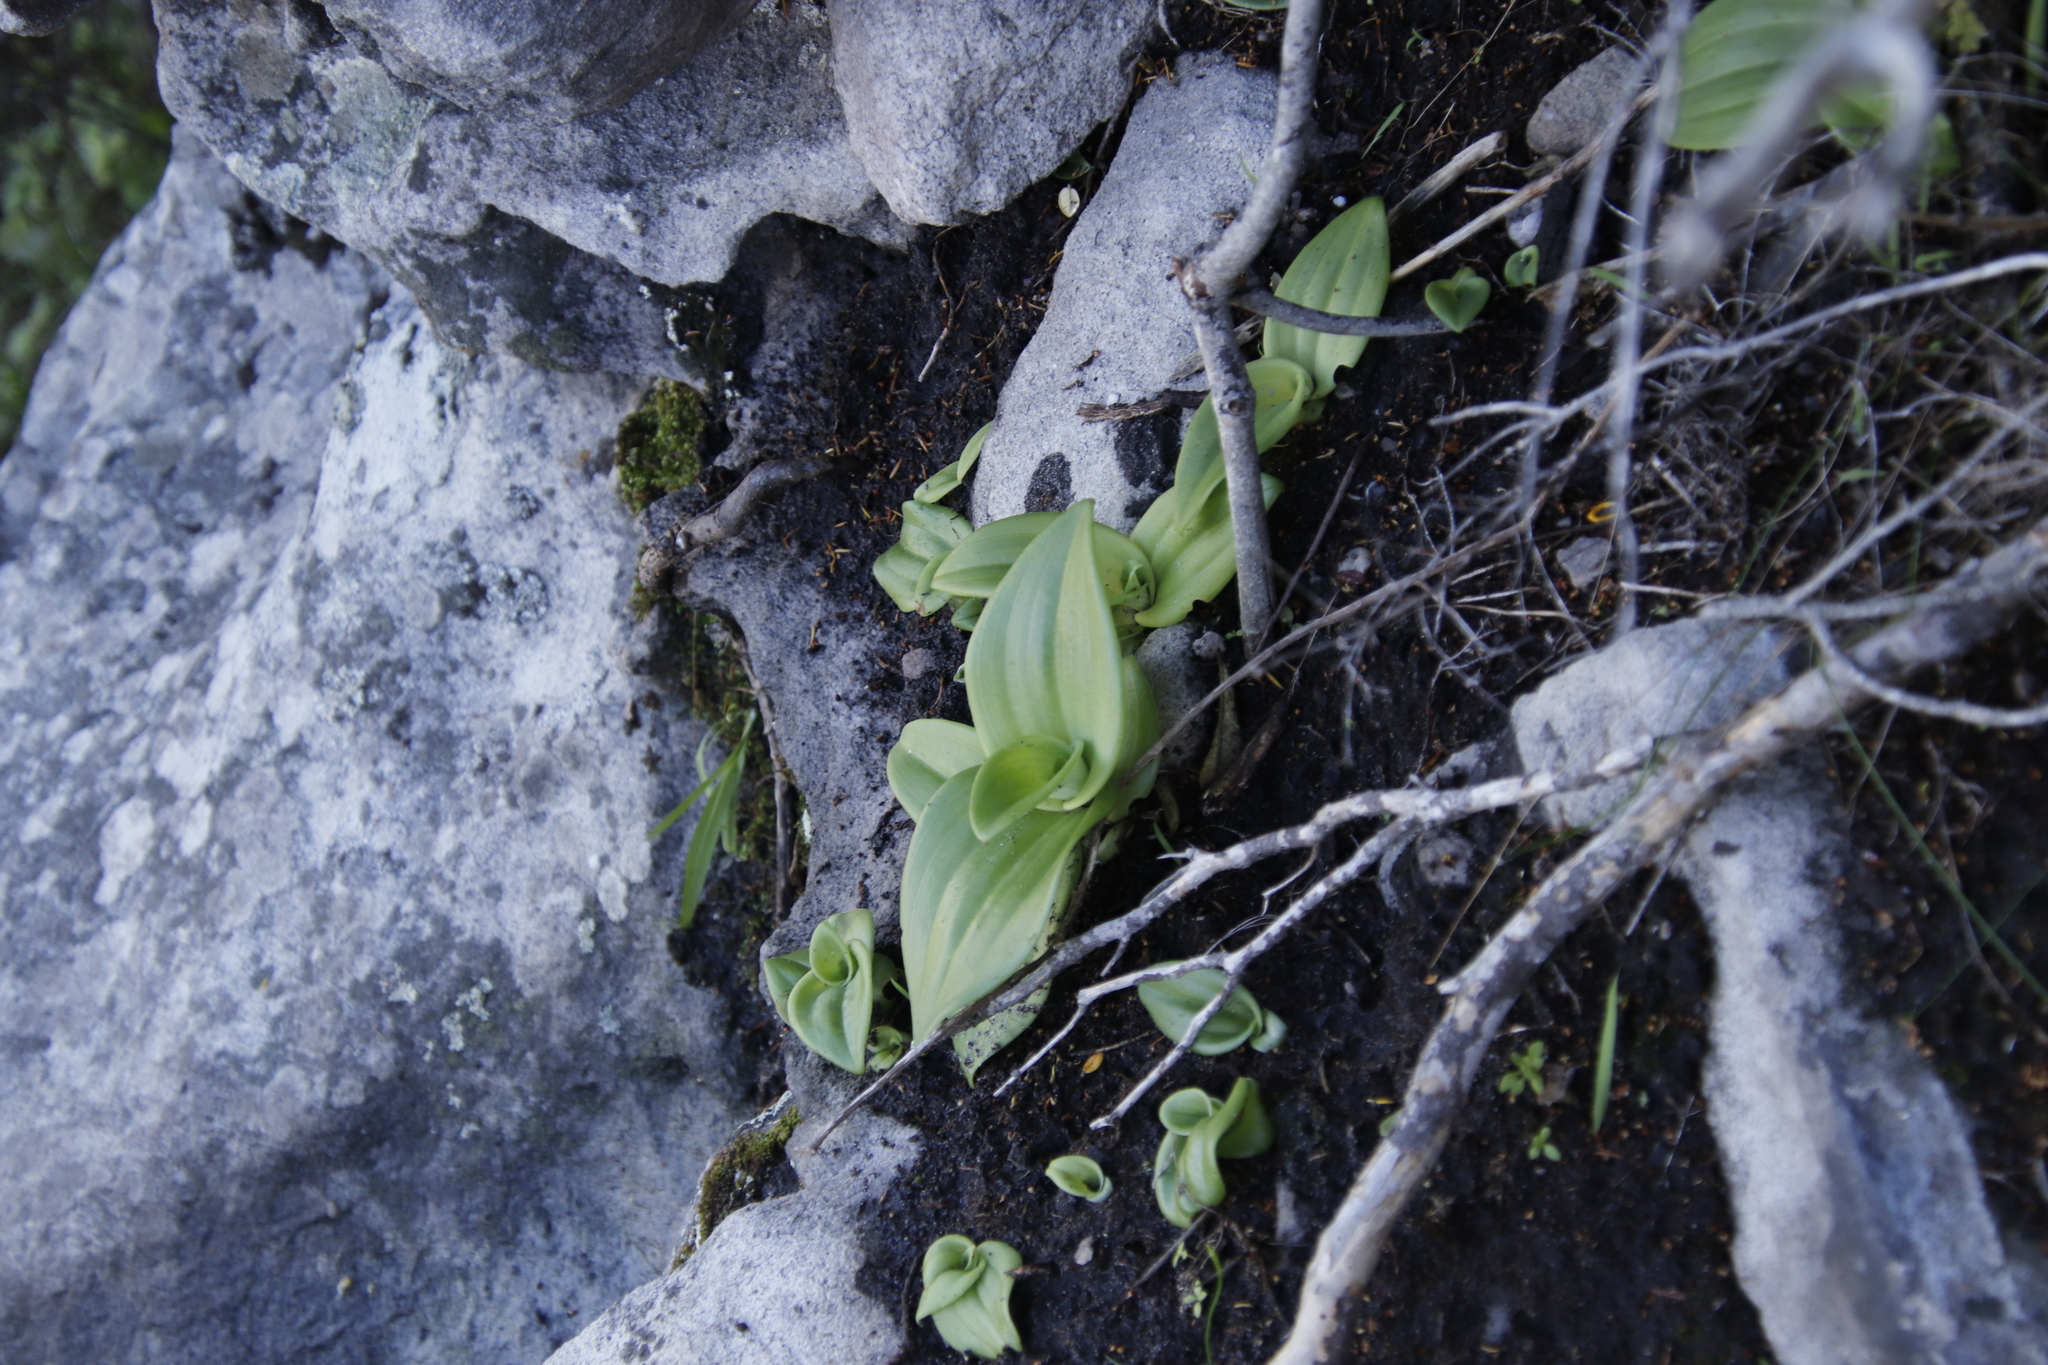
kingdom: Plantae
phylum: Tracheophyta
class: Liliopsida
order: Asparagales
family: Orchidaceae
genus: Satyrium
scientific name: Satyrium odorum
